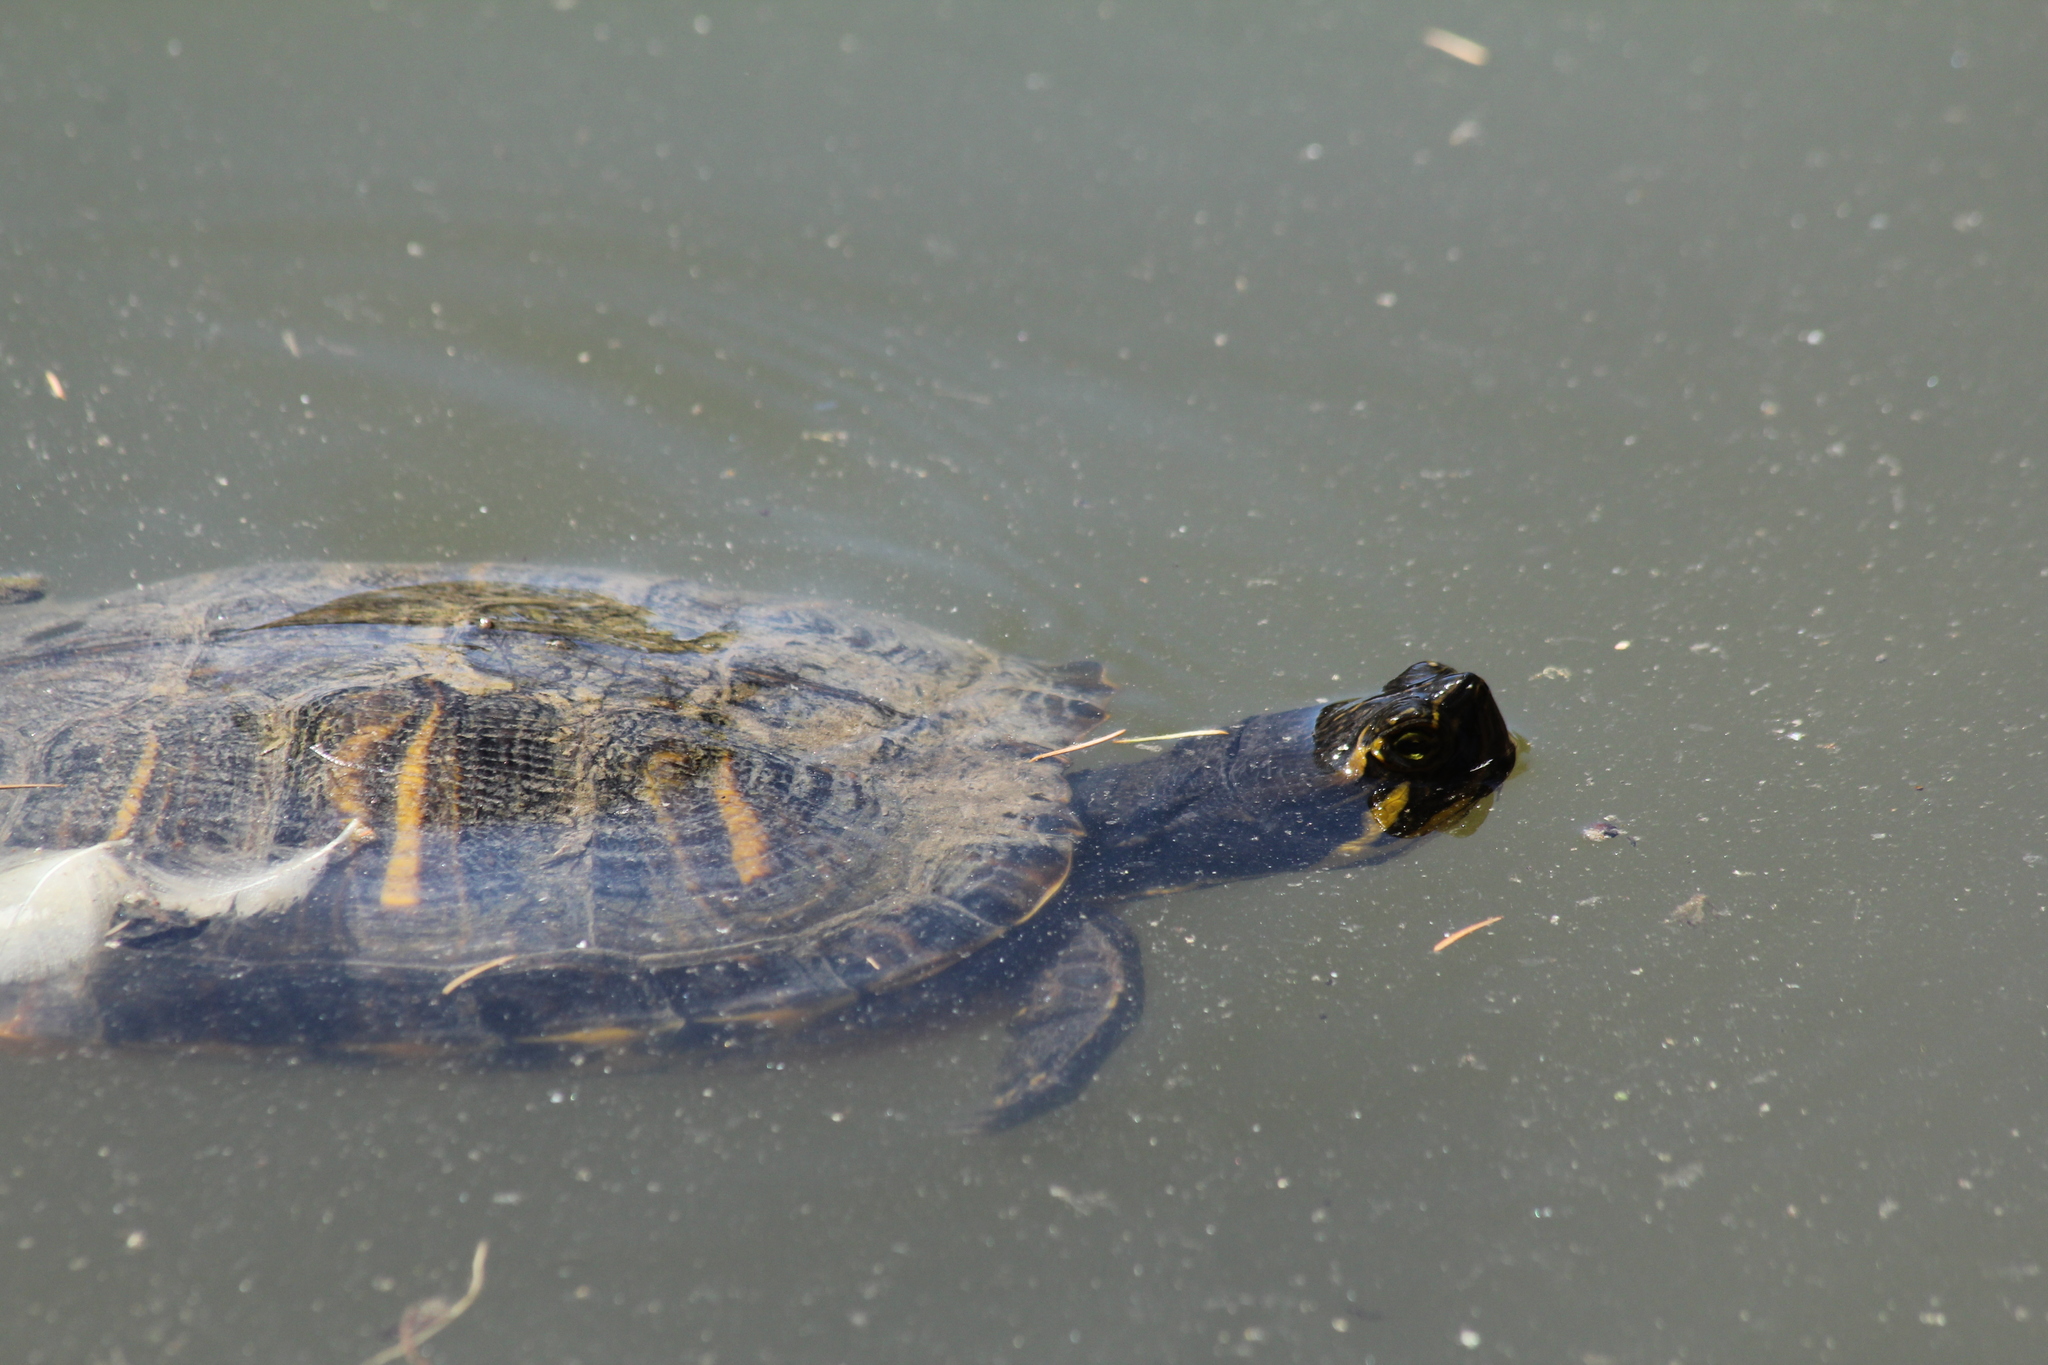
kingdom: Animalia
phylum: Chordata
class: Testudines
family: Emydidae
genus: Trachemys
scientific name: Trachemys scripta
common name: Slider
